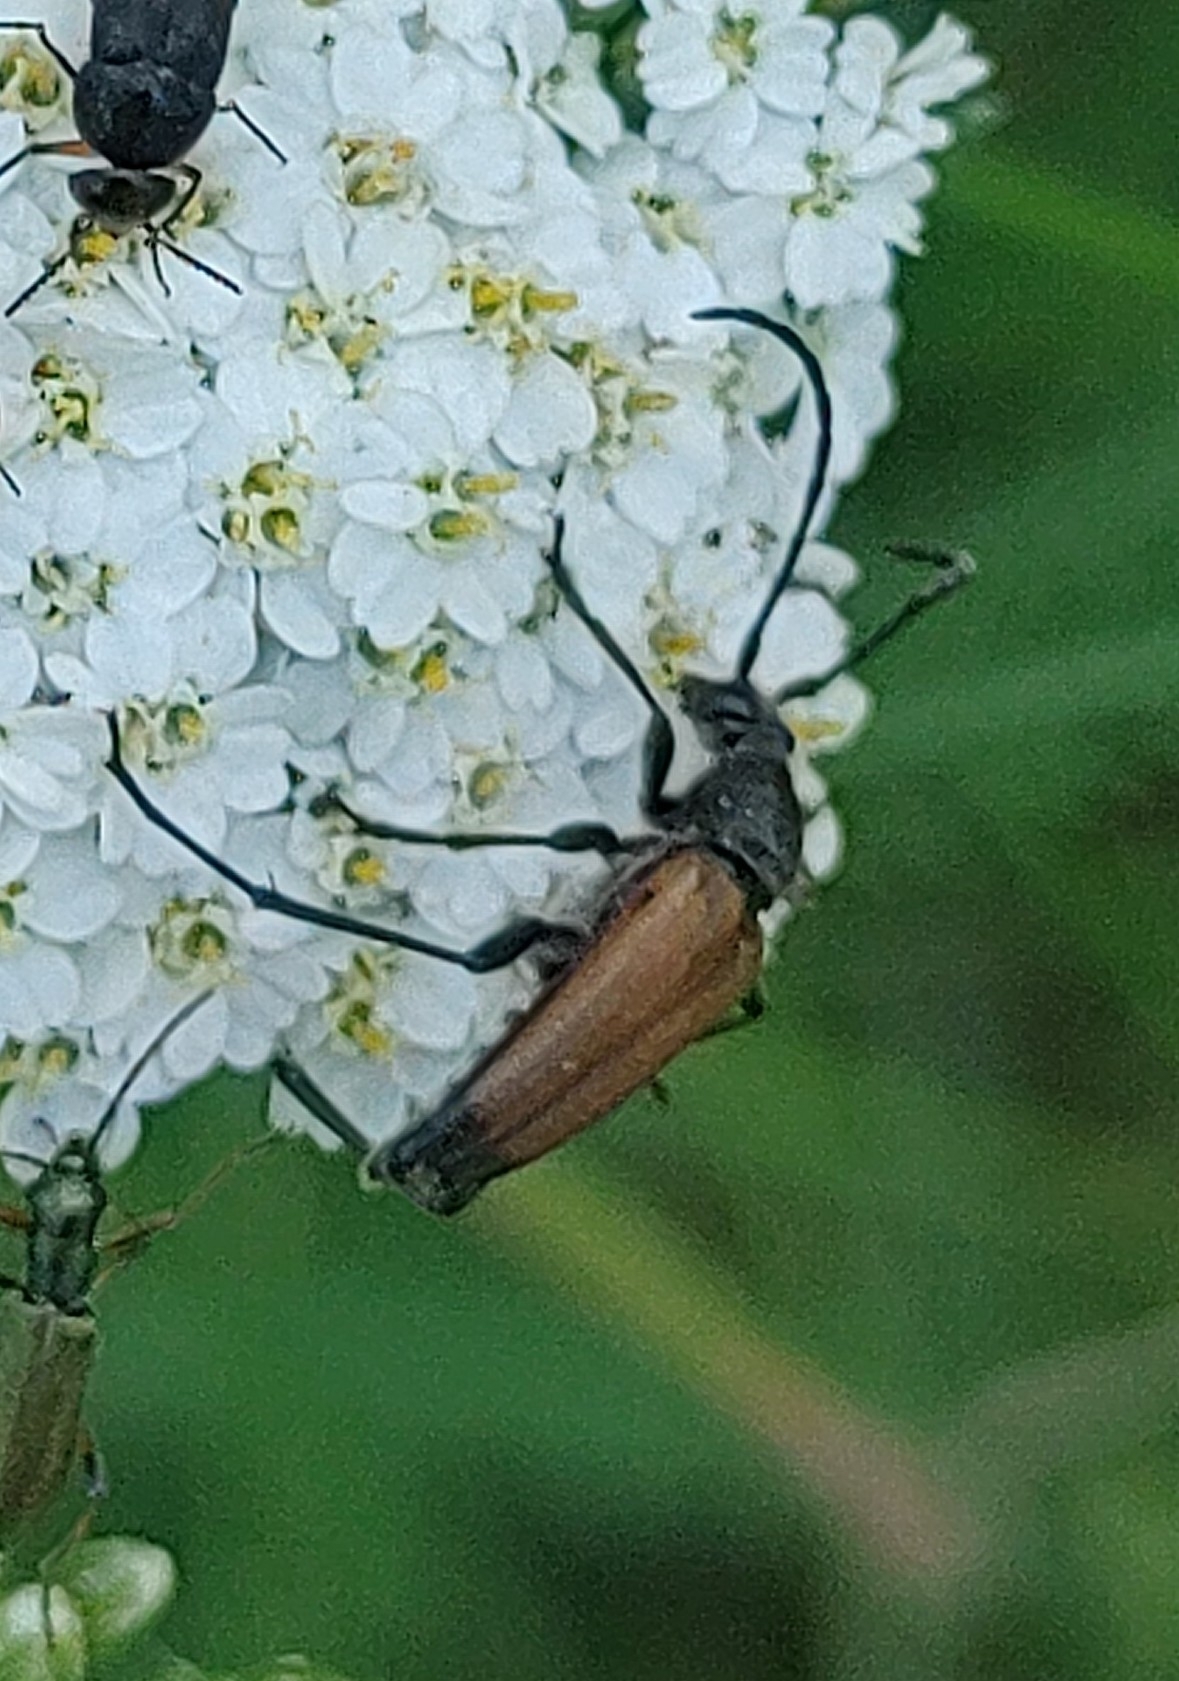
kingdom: Animalia
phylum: Arthropoda
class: Insecta
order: Coleoptera
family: Cerambycidae
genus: Anastrangalia
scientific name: Anastrangalia sanguinolenta
